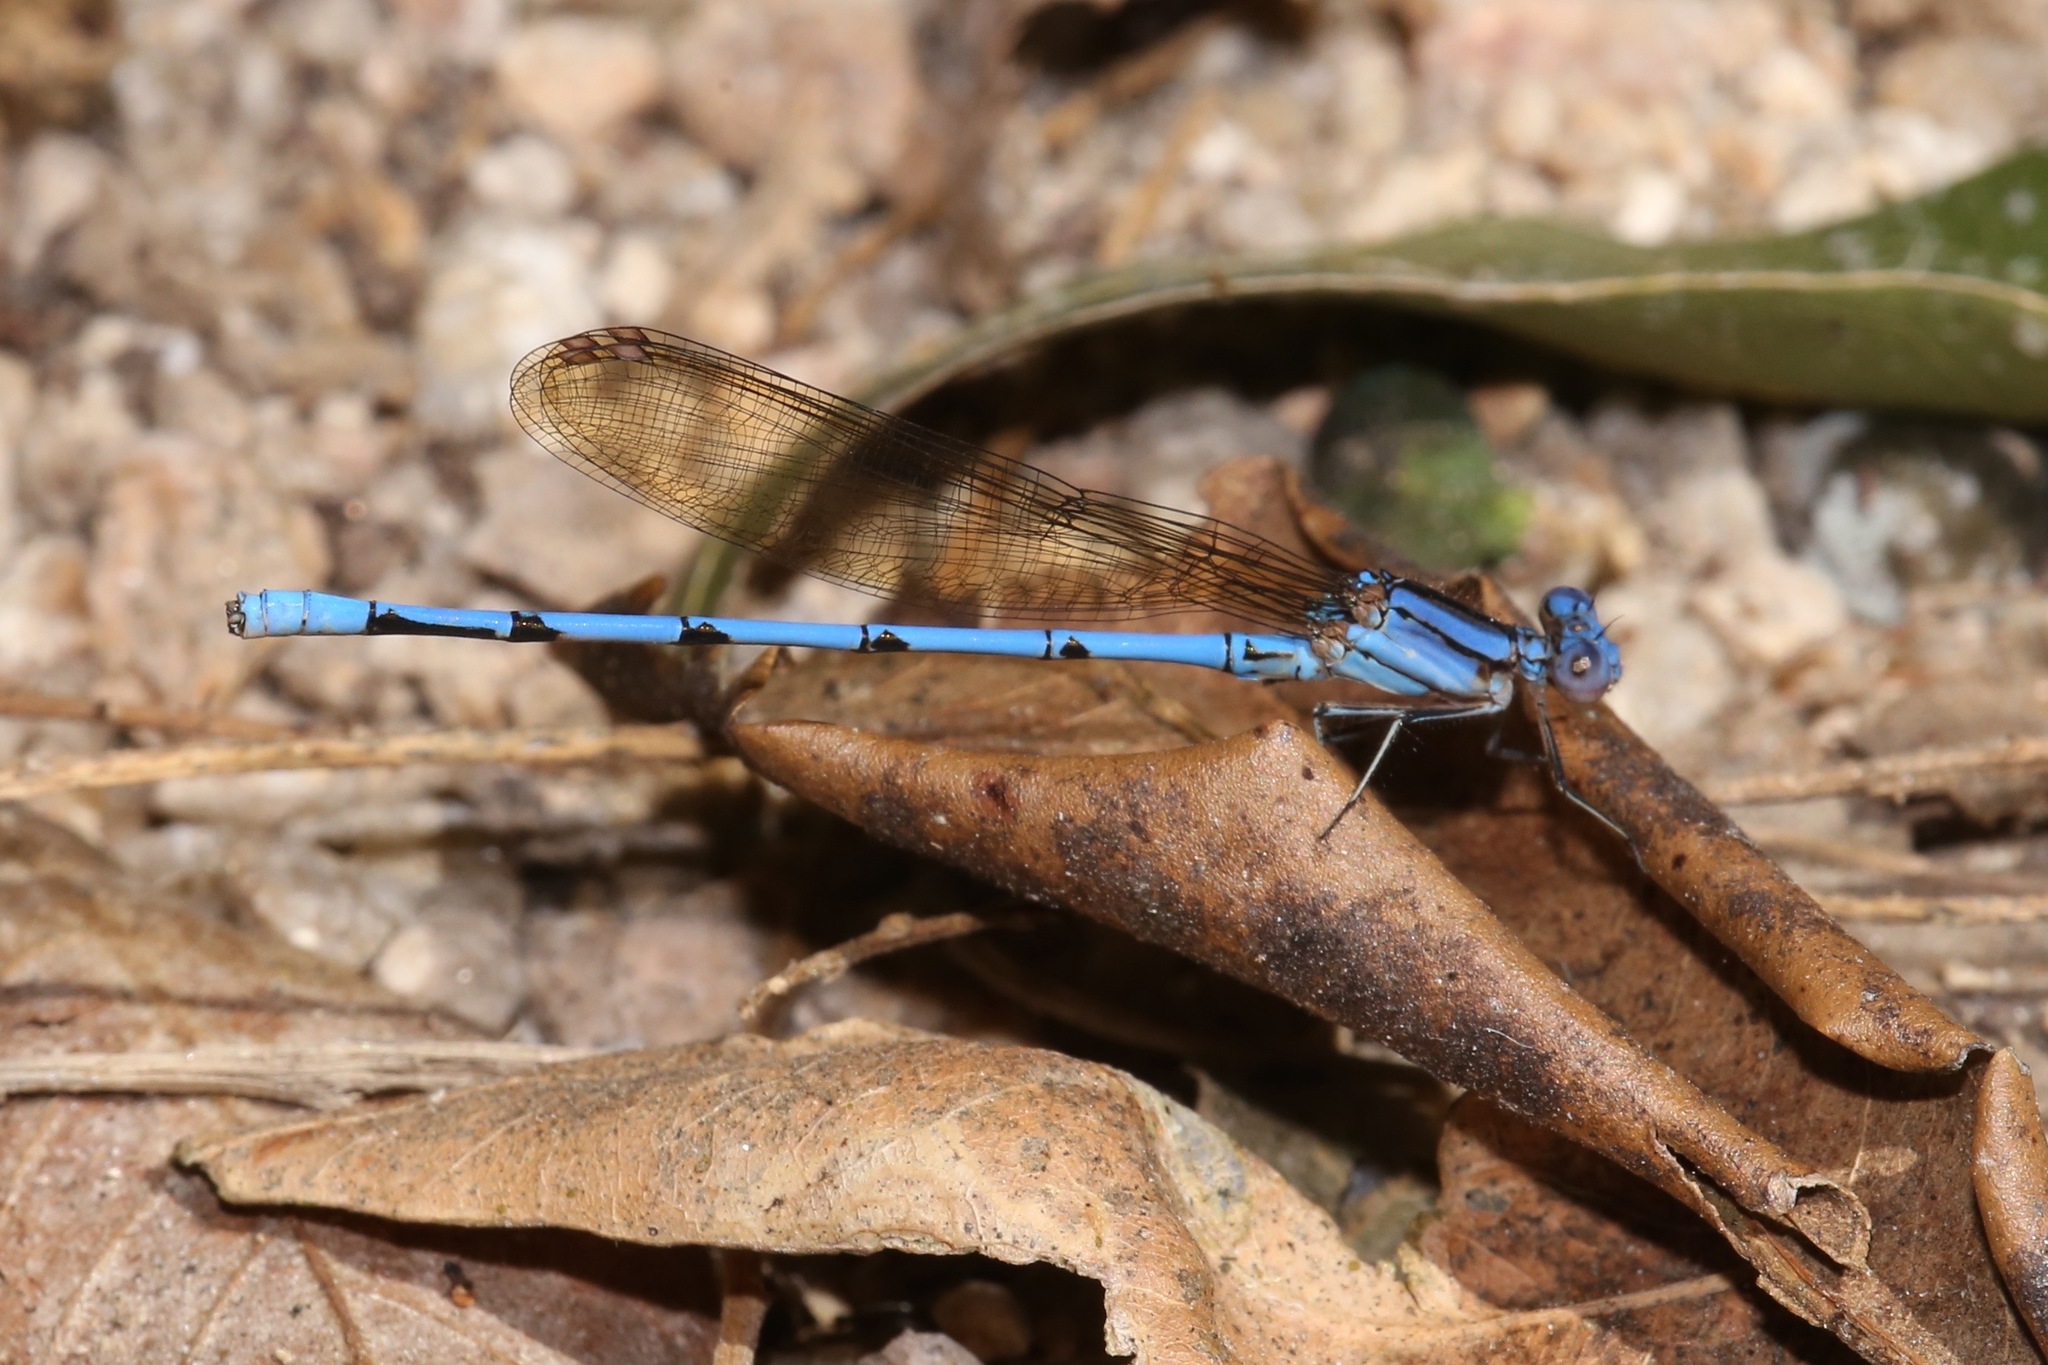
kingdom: Animalia
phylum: Arthropoda
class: Insecta
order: Odonata
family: Coenagrionidae
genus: Argia
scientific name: Argia anceps
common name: Cerulean dancer
